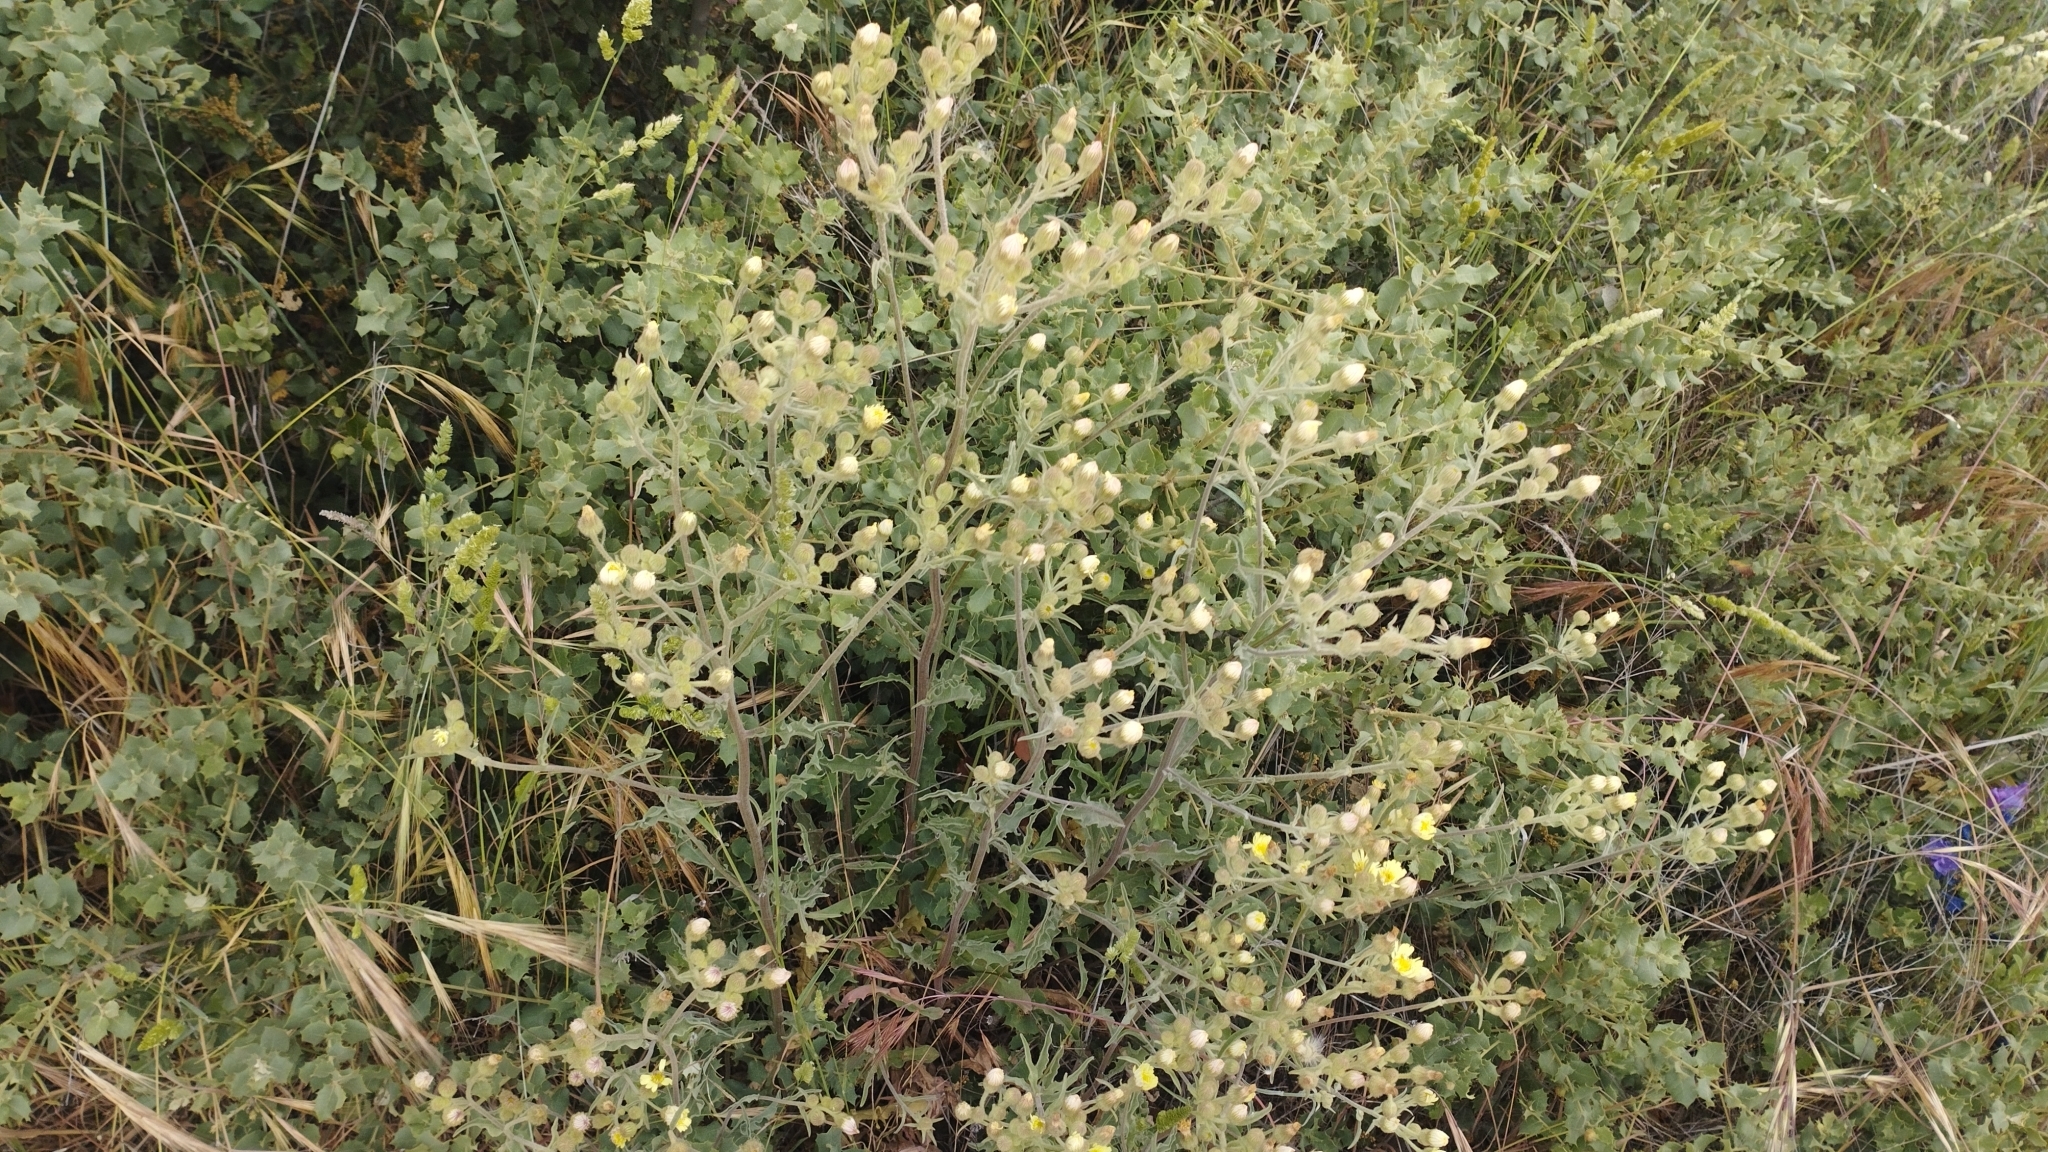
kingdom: Plantae
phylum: Tracheophyta
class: Magnoliopsida
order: Asterales
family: Asteraceae
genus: Andryala
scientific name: Andryala integrifolia
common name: Common andryala
